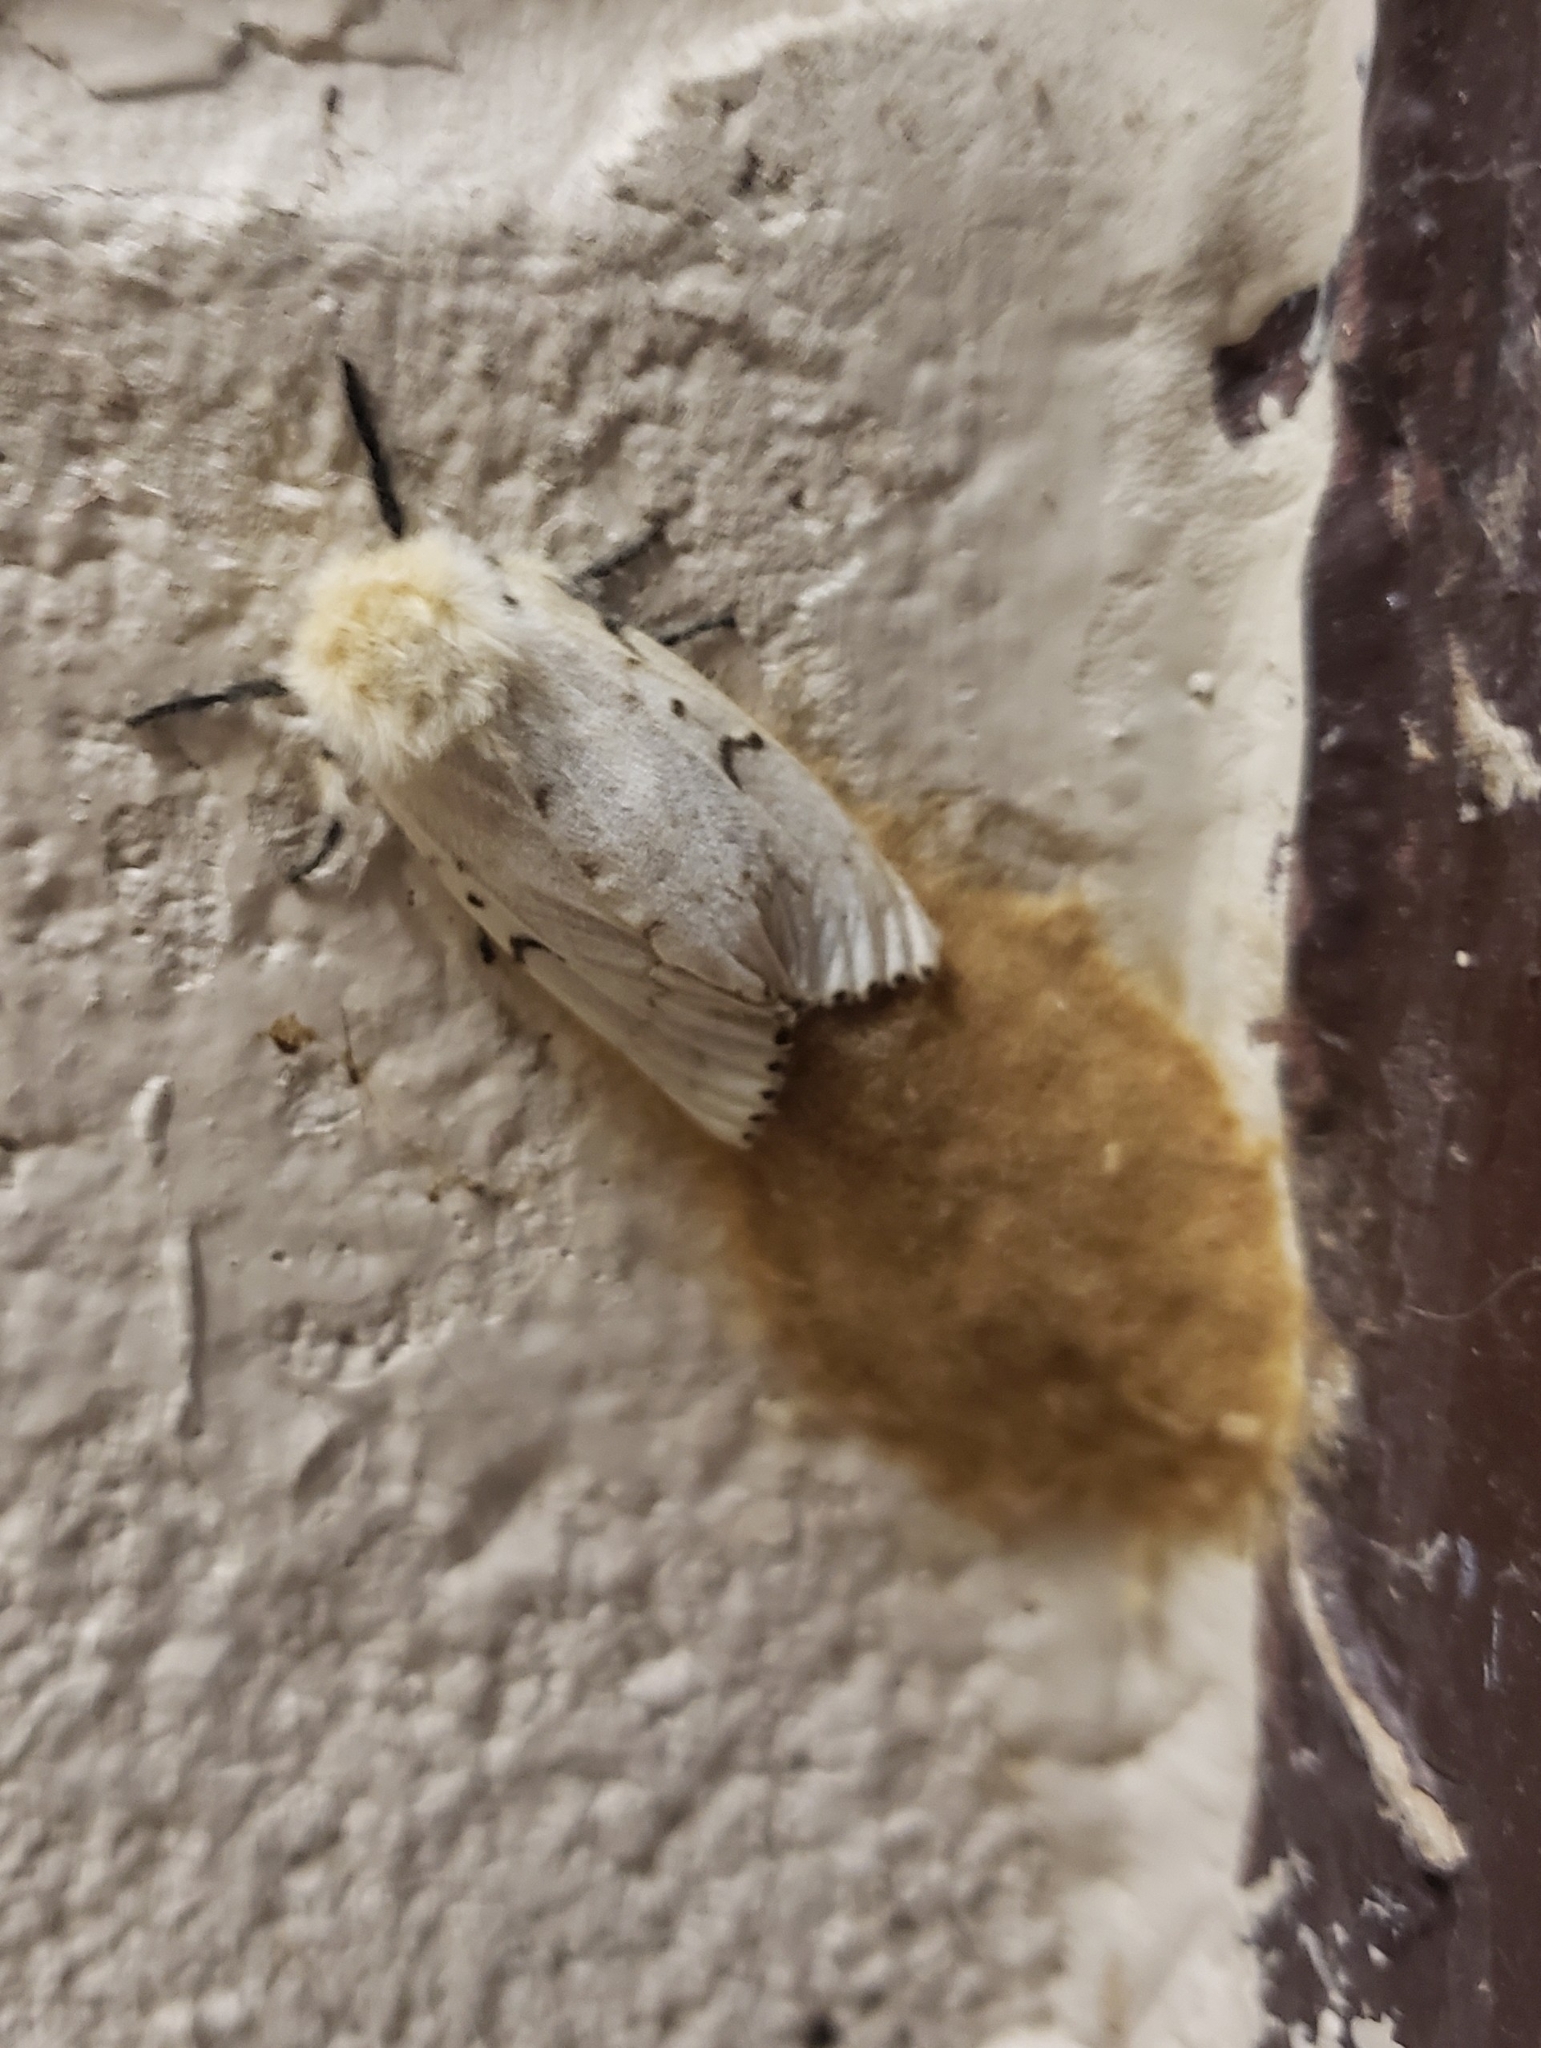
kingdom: Animalia
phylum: Arthropoda
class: Insecta
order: Lepidoptera
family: Erebidae
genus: Lymantria
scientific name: Lymantria dispar
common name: Gypsy moth
